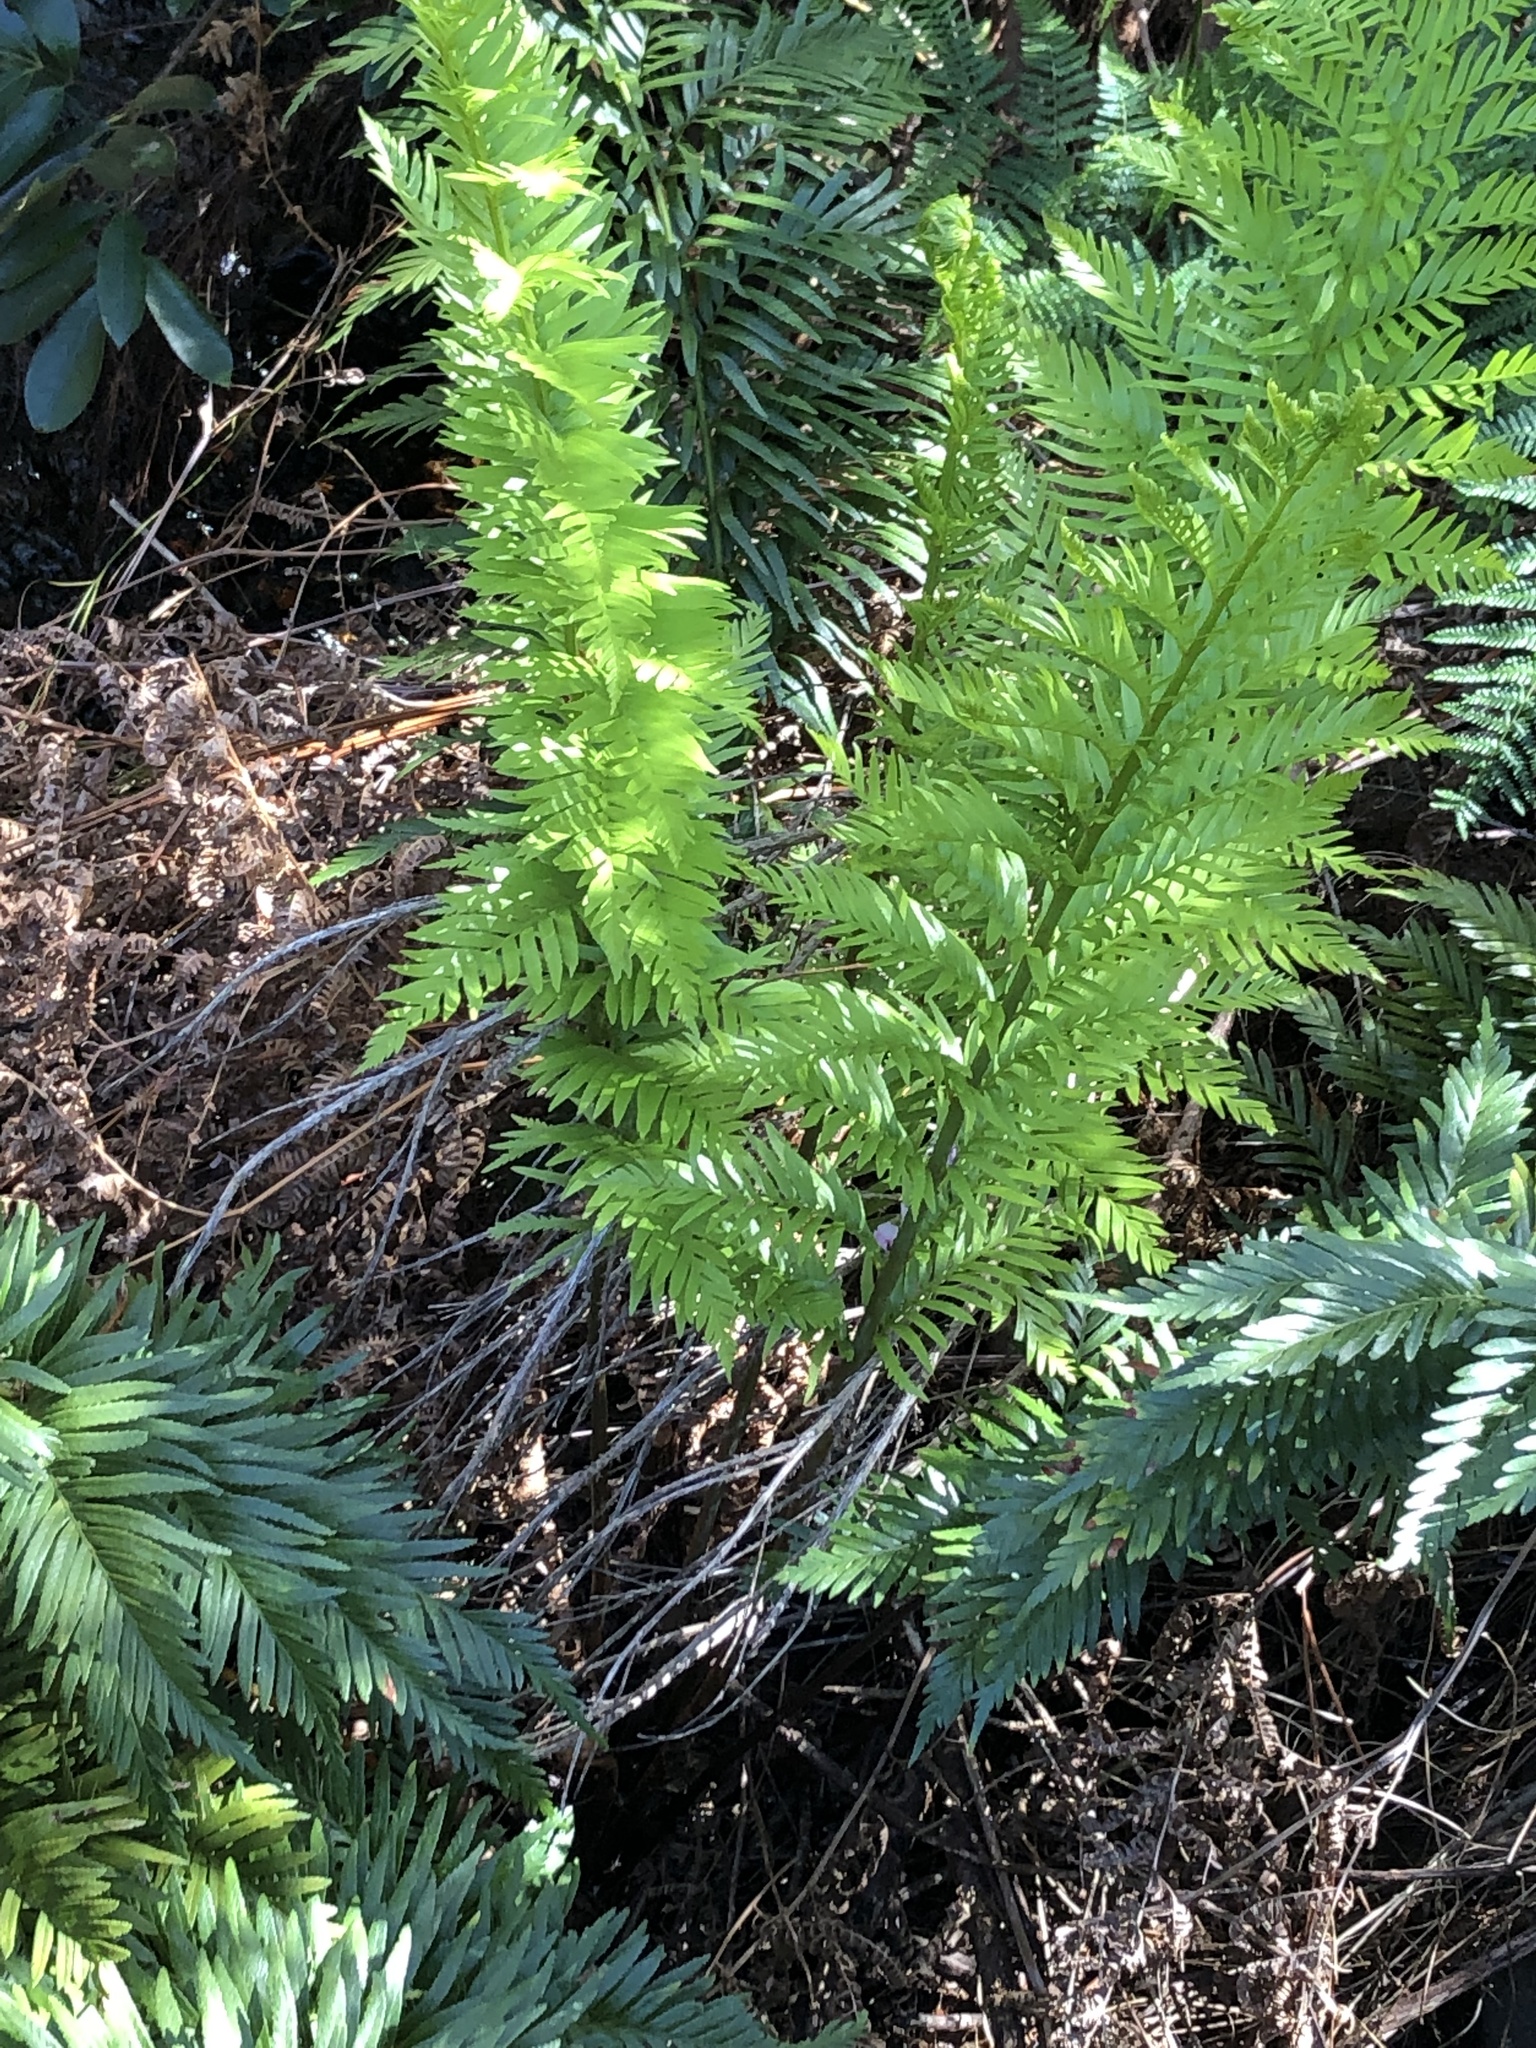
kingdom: Plantae
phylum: Tracheophyta
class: Polypodiopsida
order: Osmundales
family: Osmundaceae
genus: Todea
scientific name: Todea barbara
